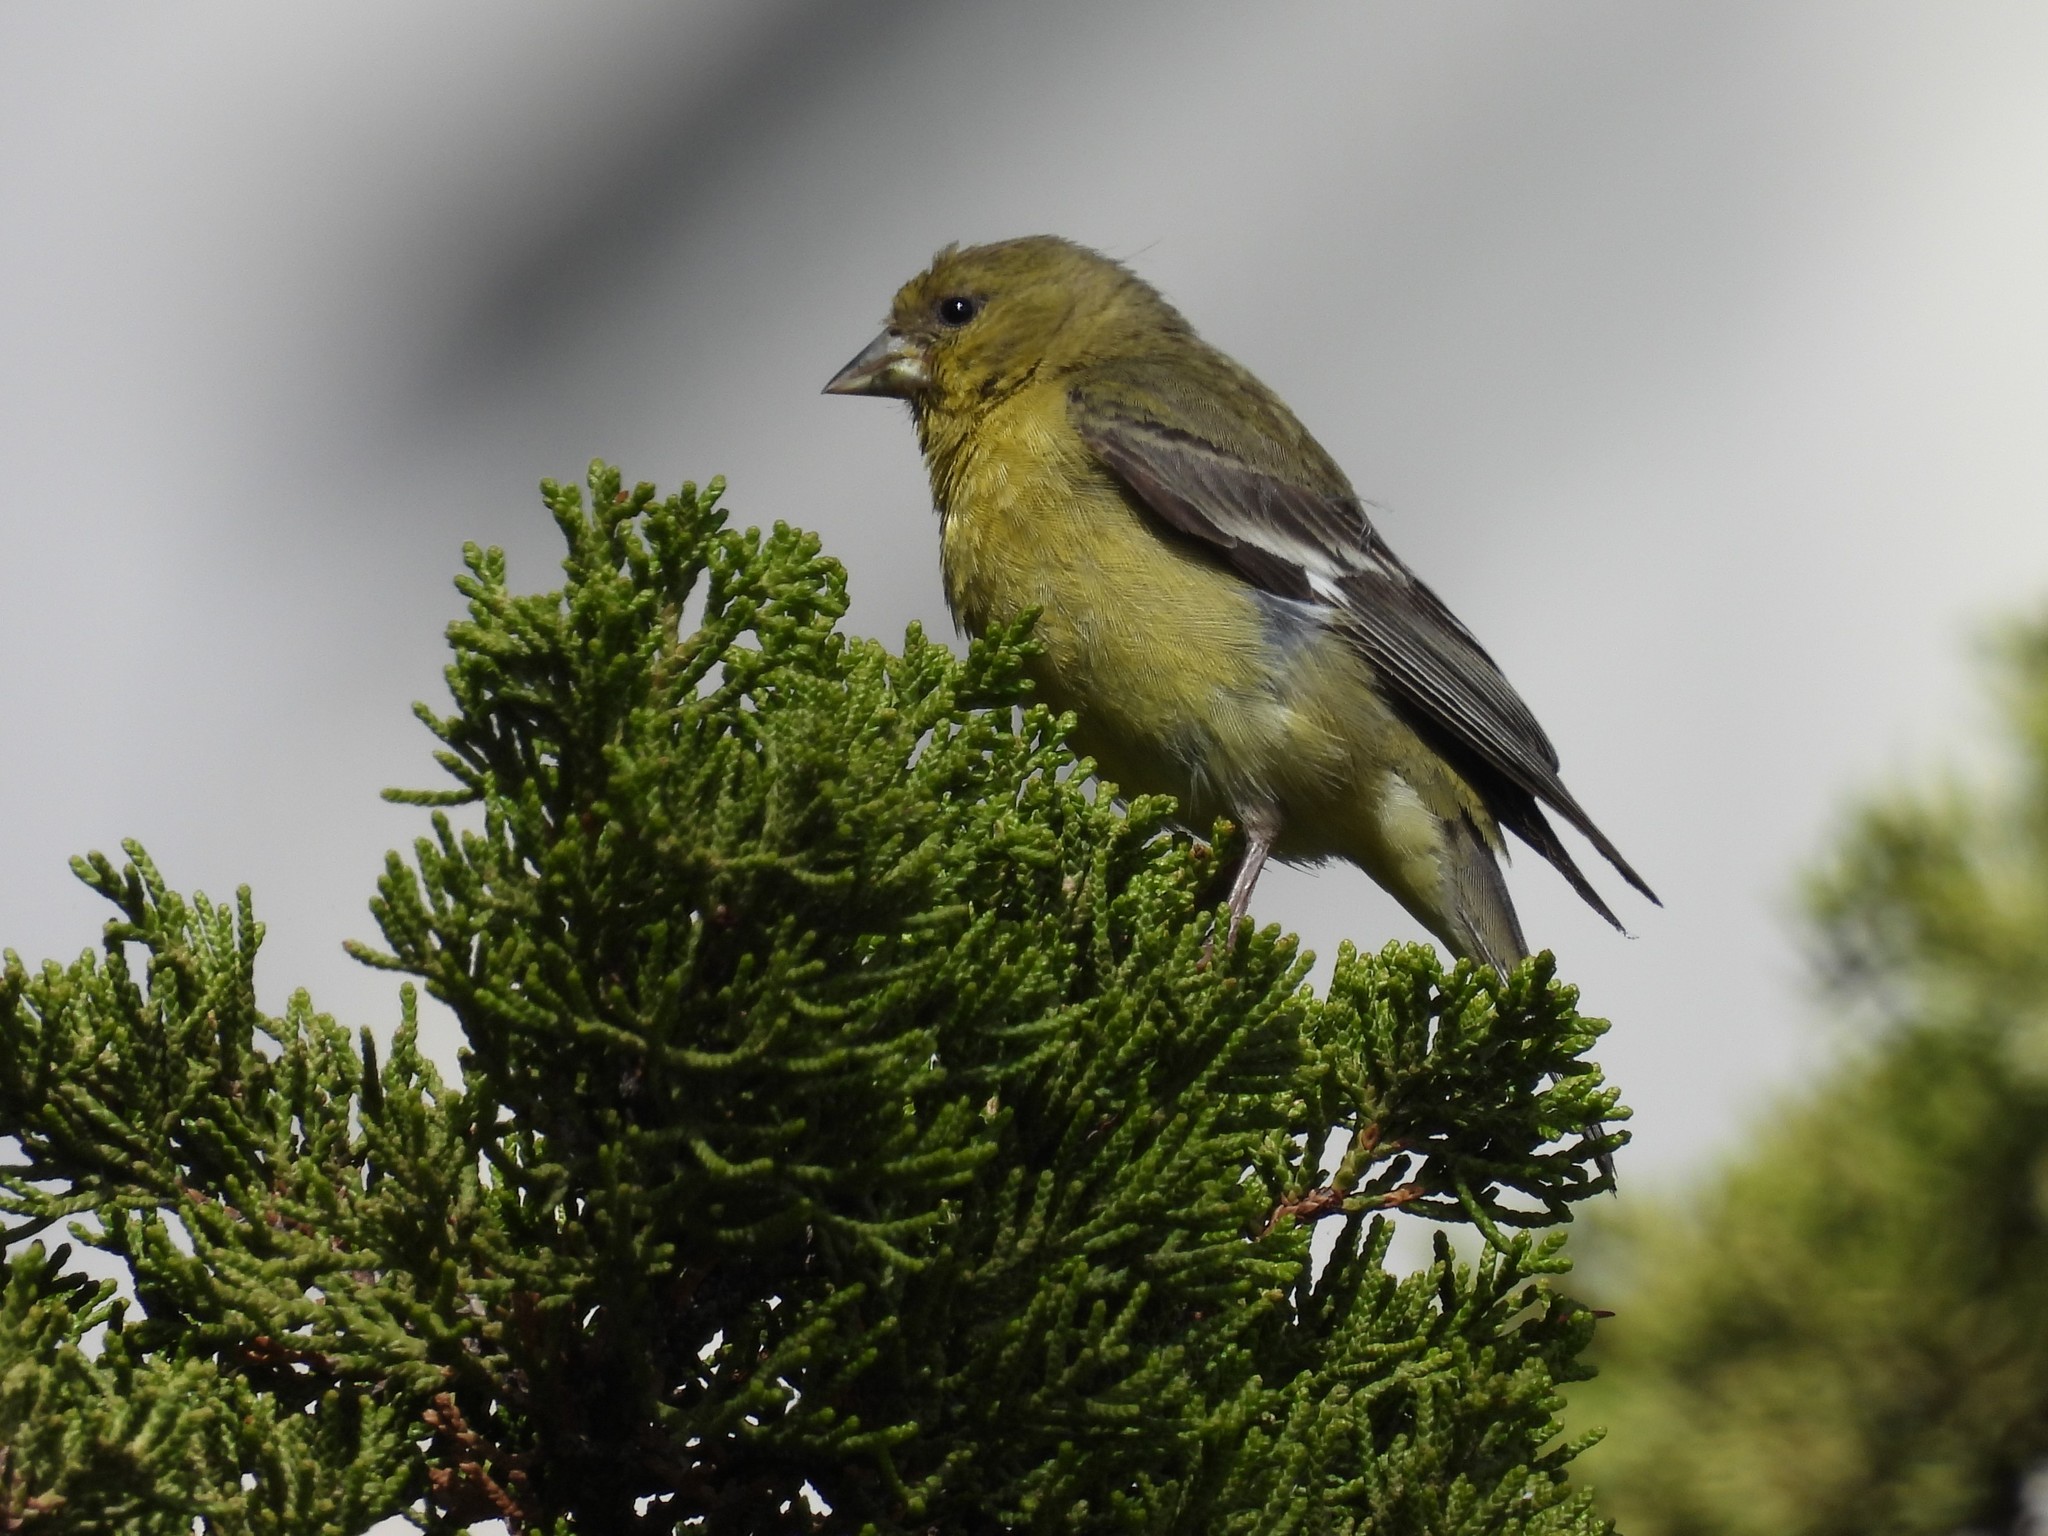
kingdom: Animalia
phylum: Chordata
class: Aves
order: Passeriformes
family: Fringillidae
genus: Spinus
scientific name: Spinus psaltria
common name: Lesser goldfinch
